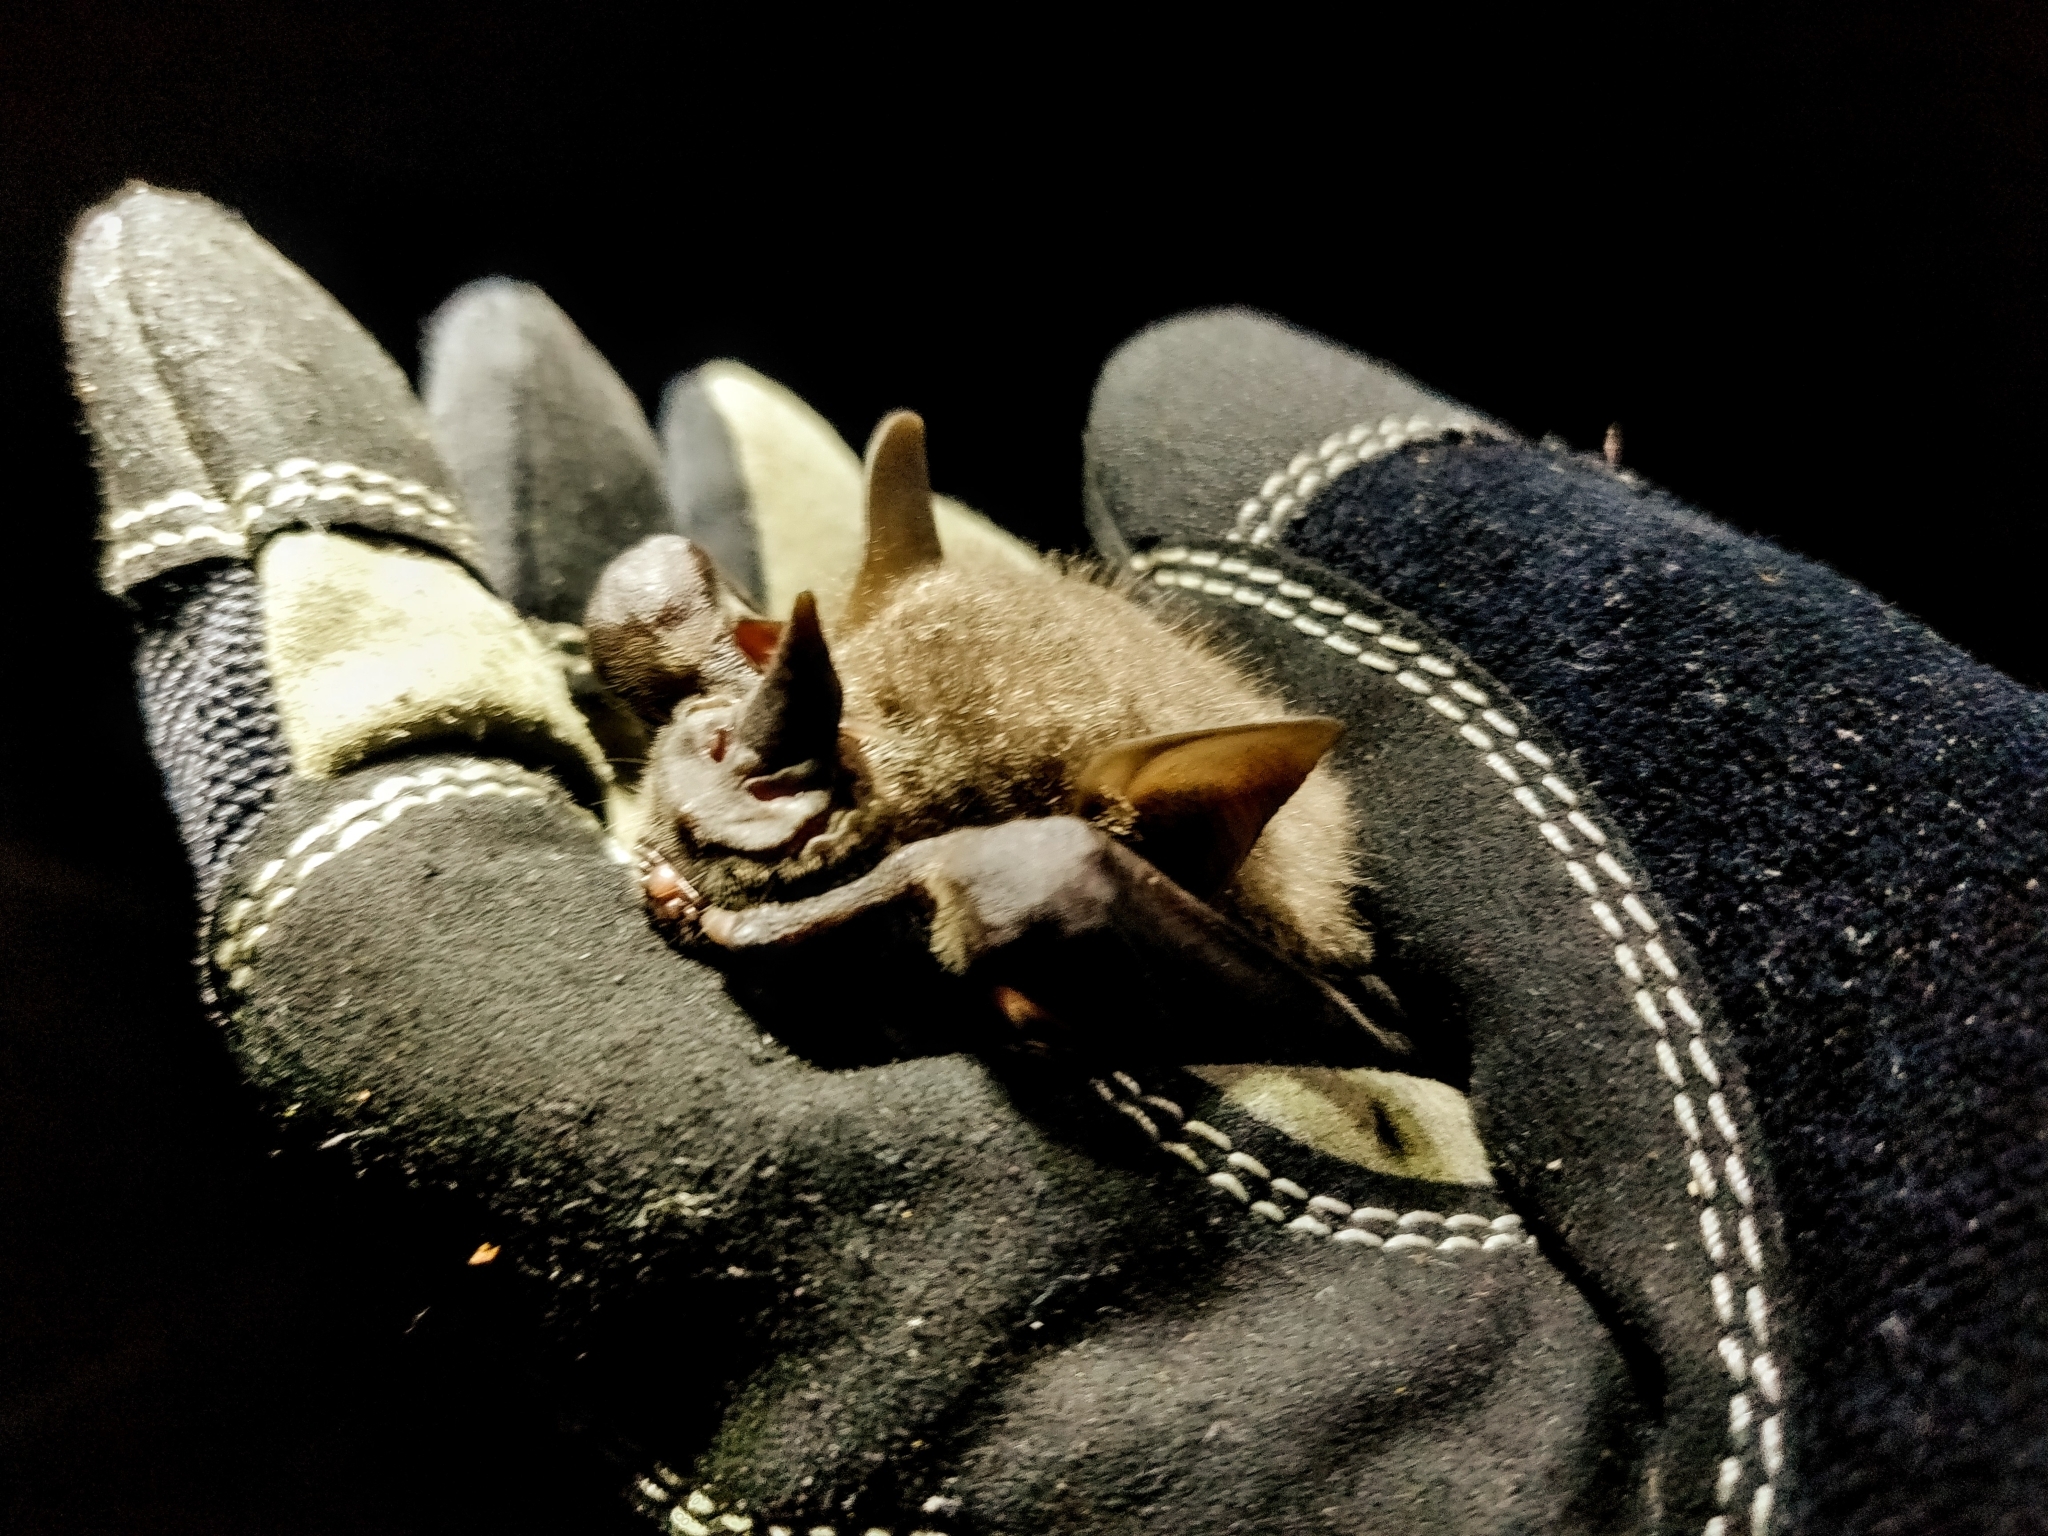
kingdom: Animalia
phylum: Chordata
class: Mammalia
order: Chiroptera
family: Phyllostomidae
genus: Artibeus
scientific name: Artibeus jamaicensis
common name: Jamaican fruit-eating bat
